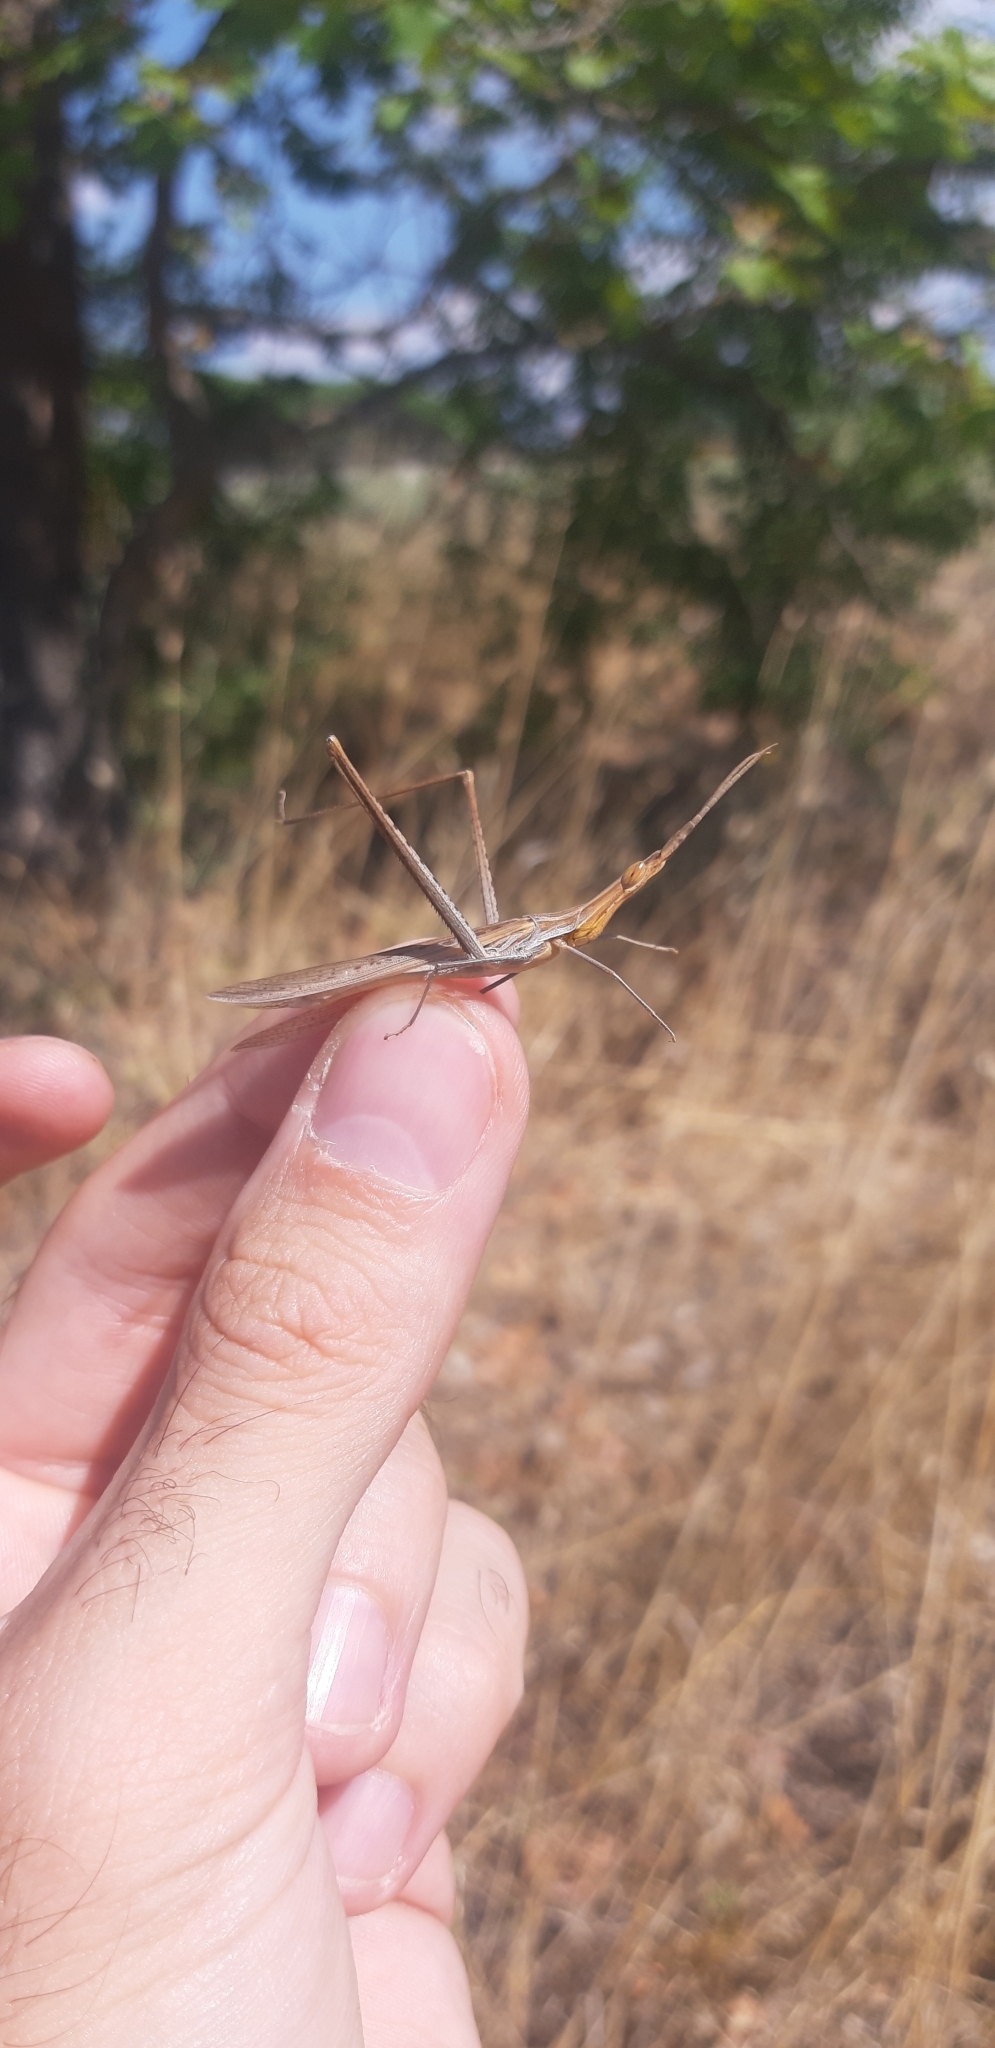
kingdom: Animalia
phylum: Arthropoda
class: Insecta
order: Orthoptera
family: Acrididae
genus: Acrida
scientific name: Acrida ungarica
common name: Common cone-headed grasshopper
